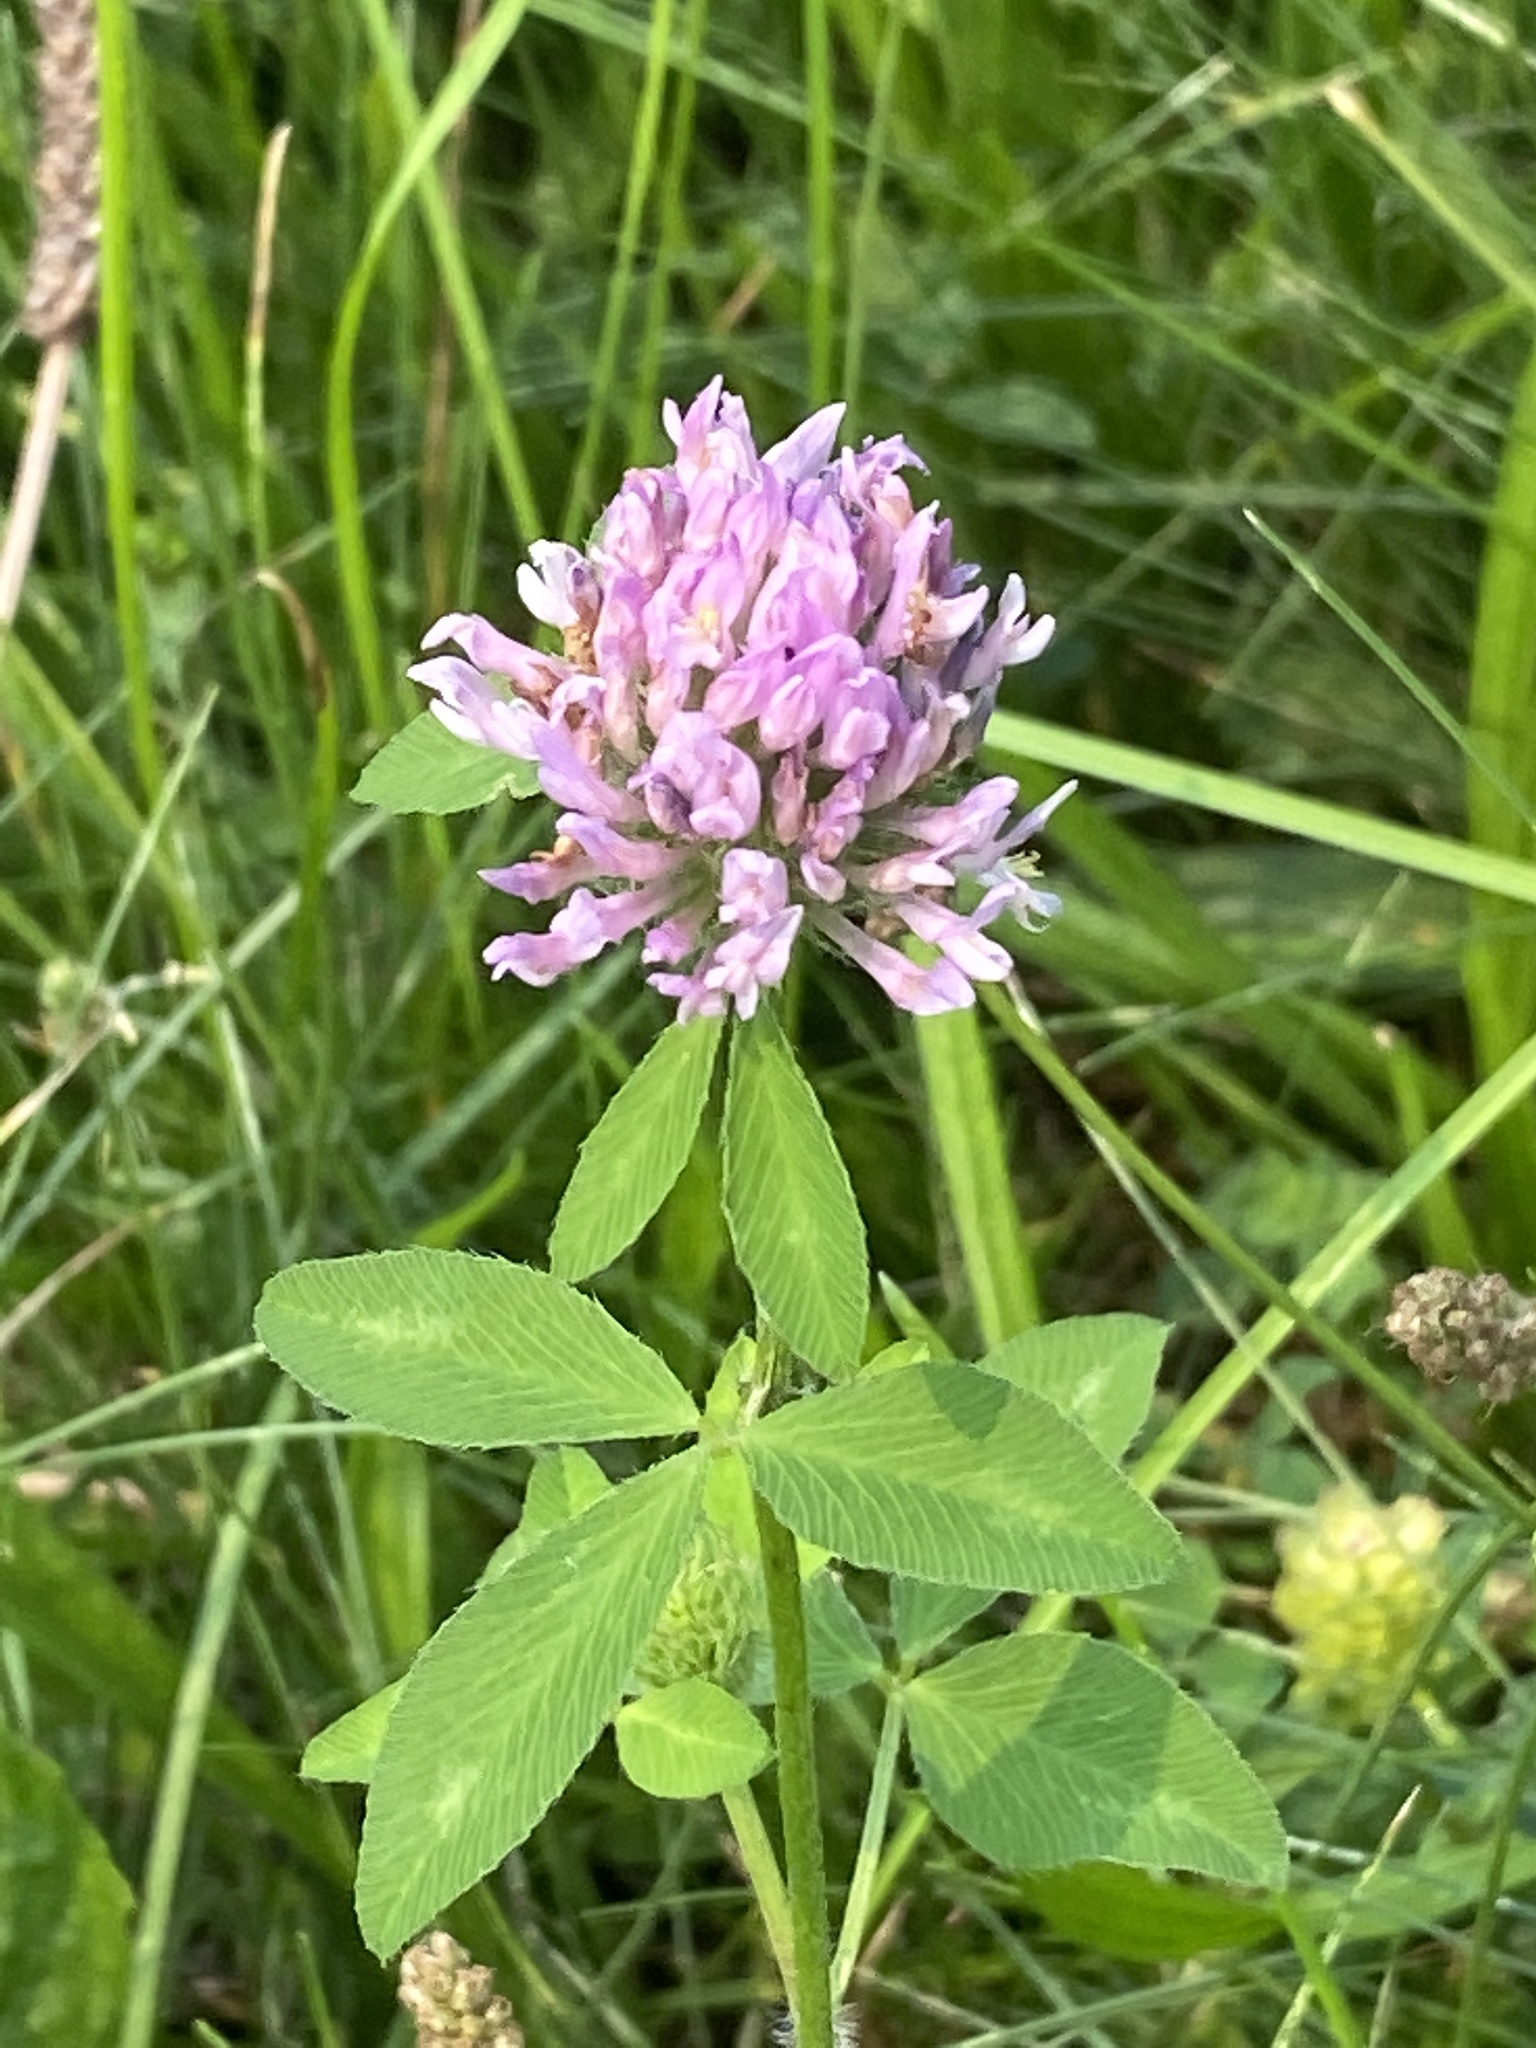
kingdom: Plantae
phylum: Tracheophyta
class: Magnoliopsida
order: Fabales
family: Fabaceae
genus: Trifolium
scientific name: Trifolium pratense
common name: Red clover
